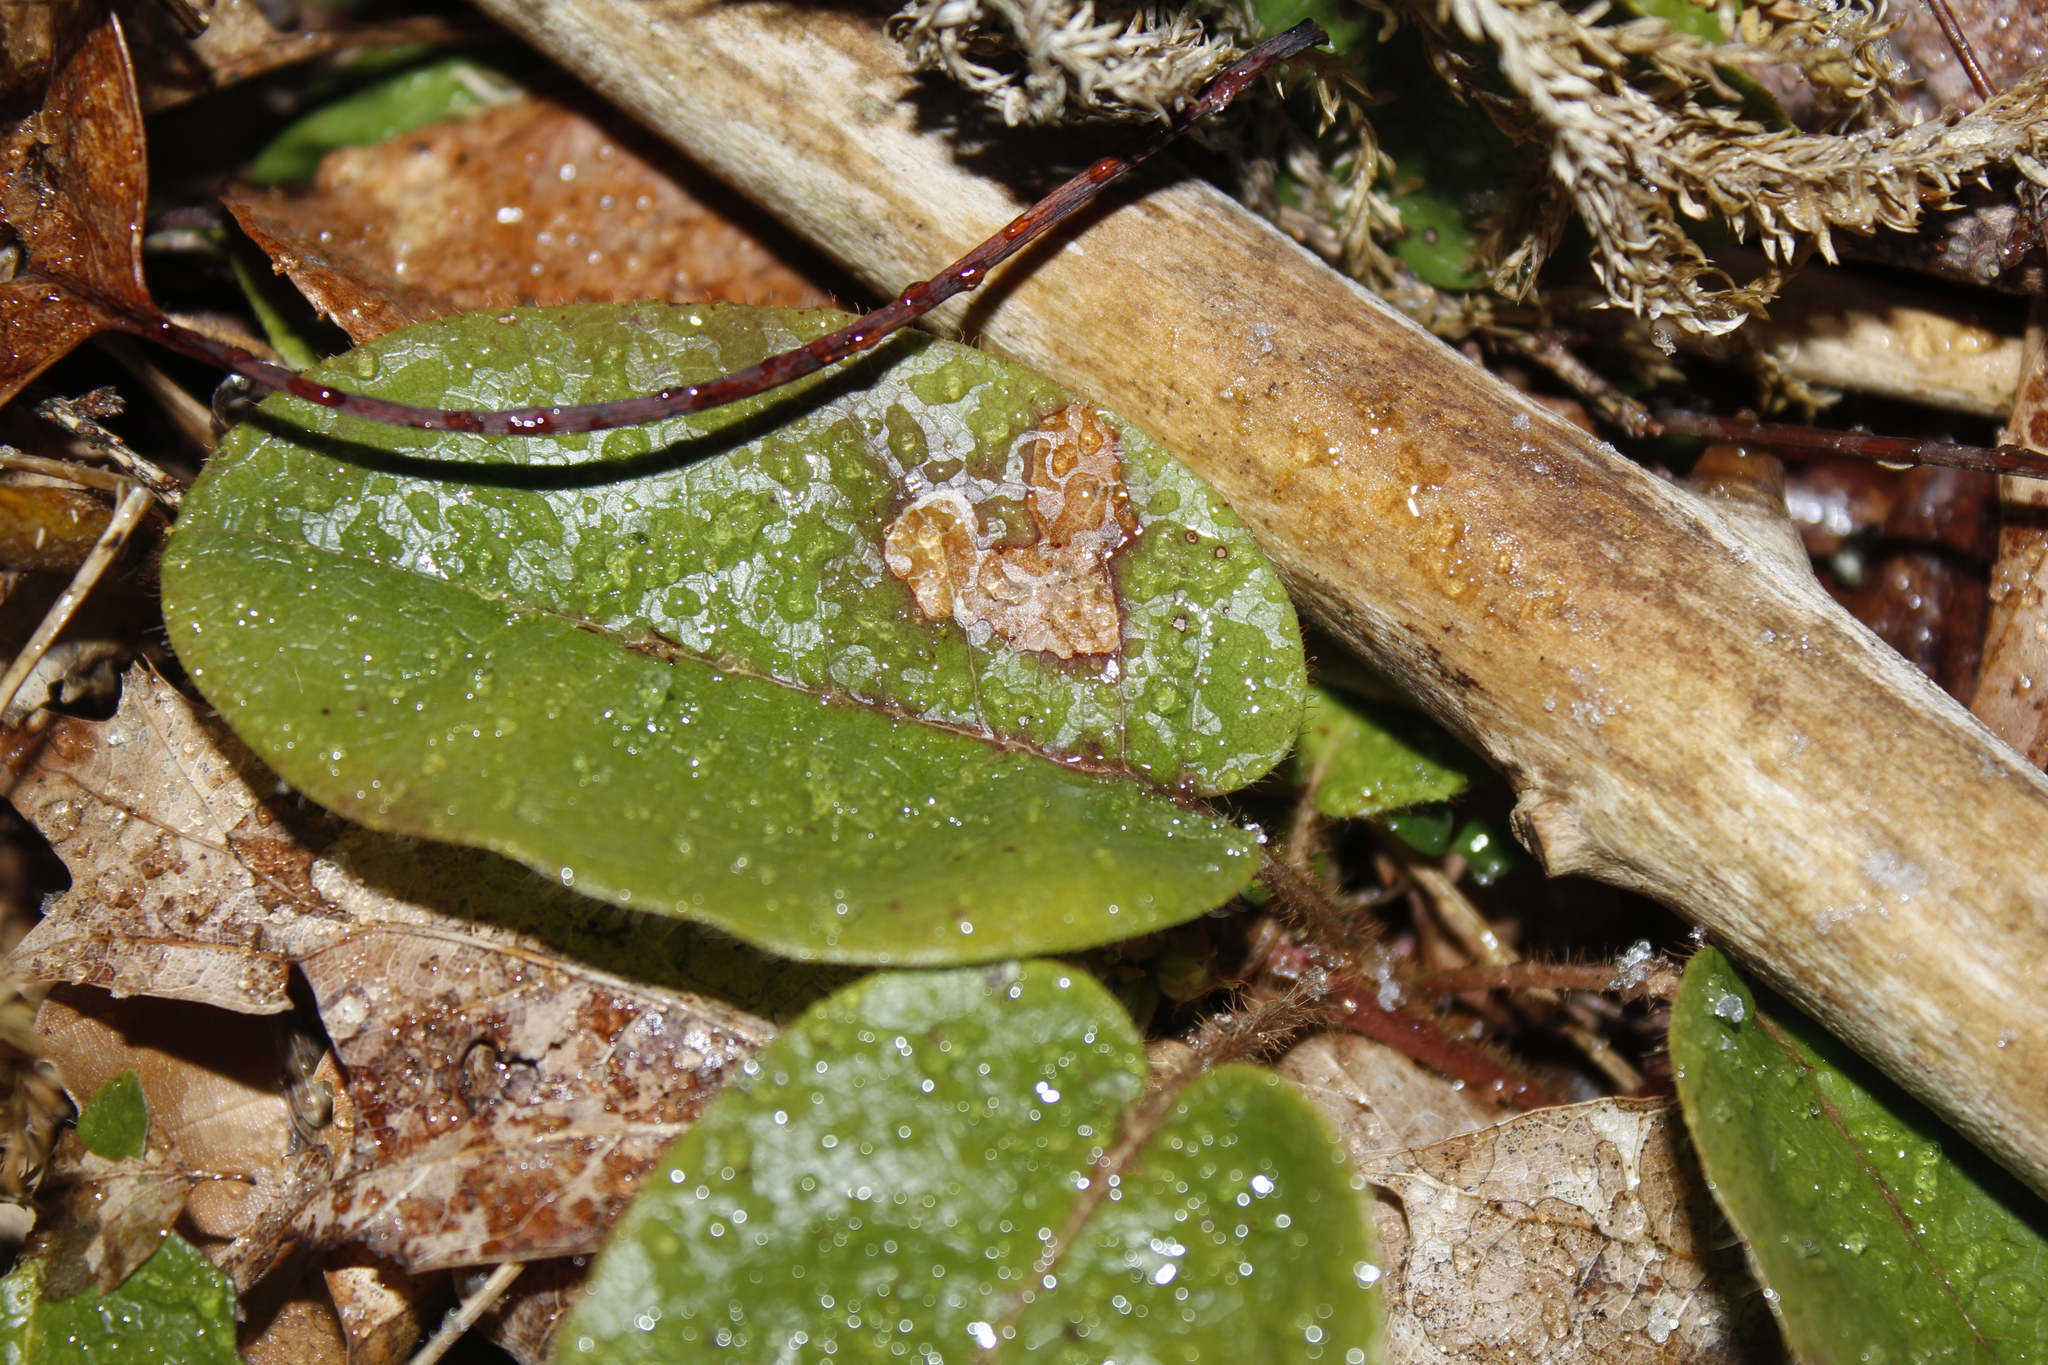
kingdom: Animalia
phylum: Arthropoda
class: Insecta
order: Coleoptera
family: Buprestidae
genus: Brachys
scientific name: Brachys
